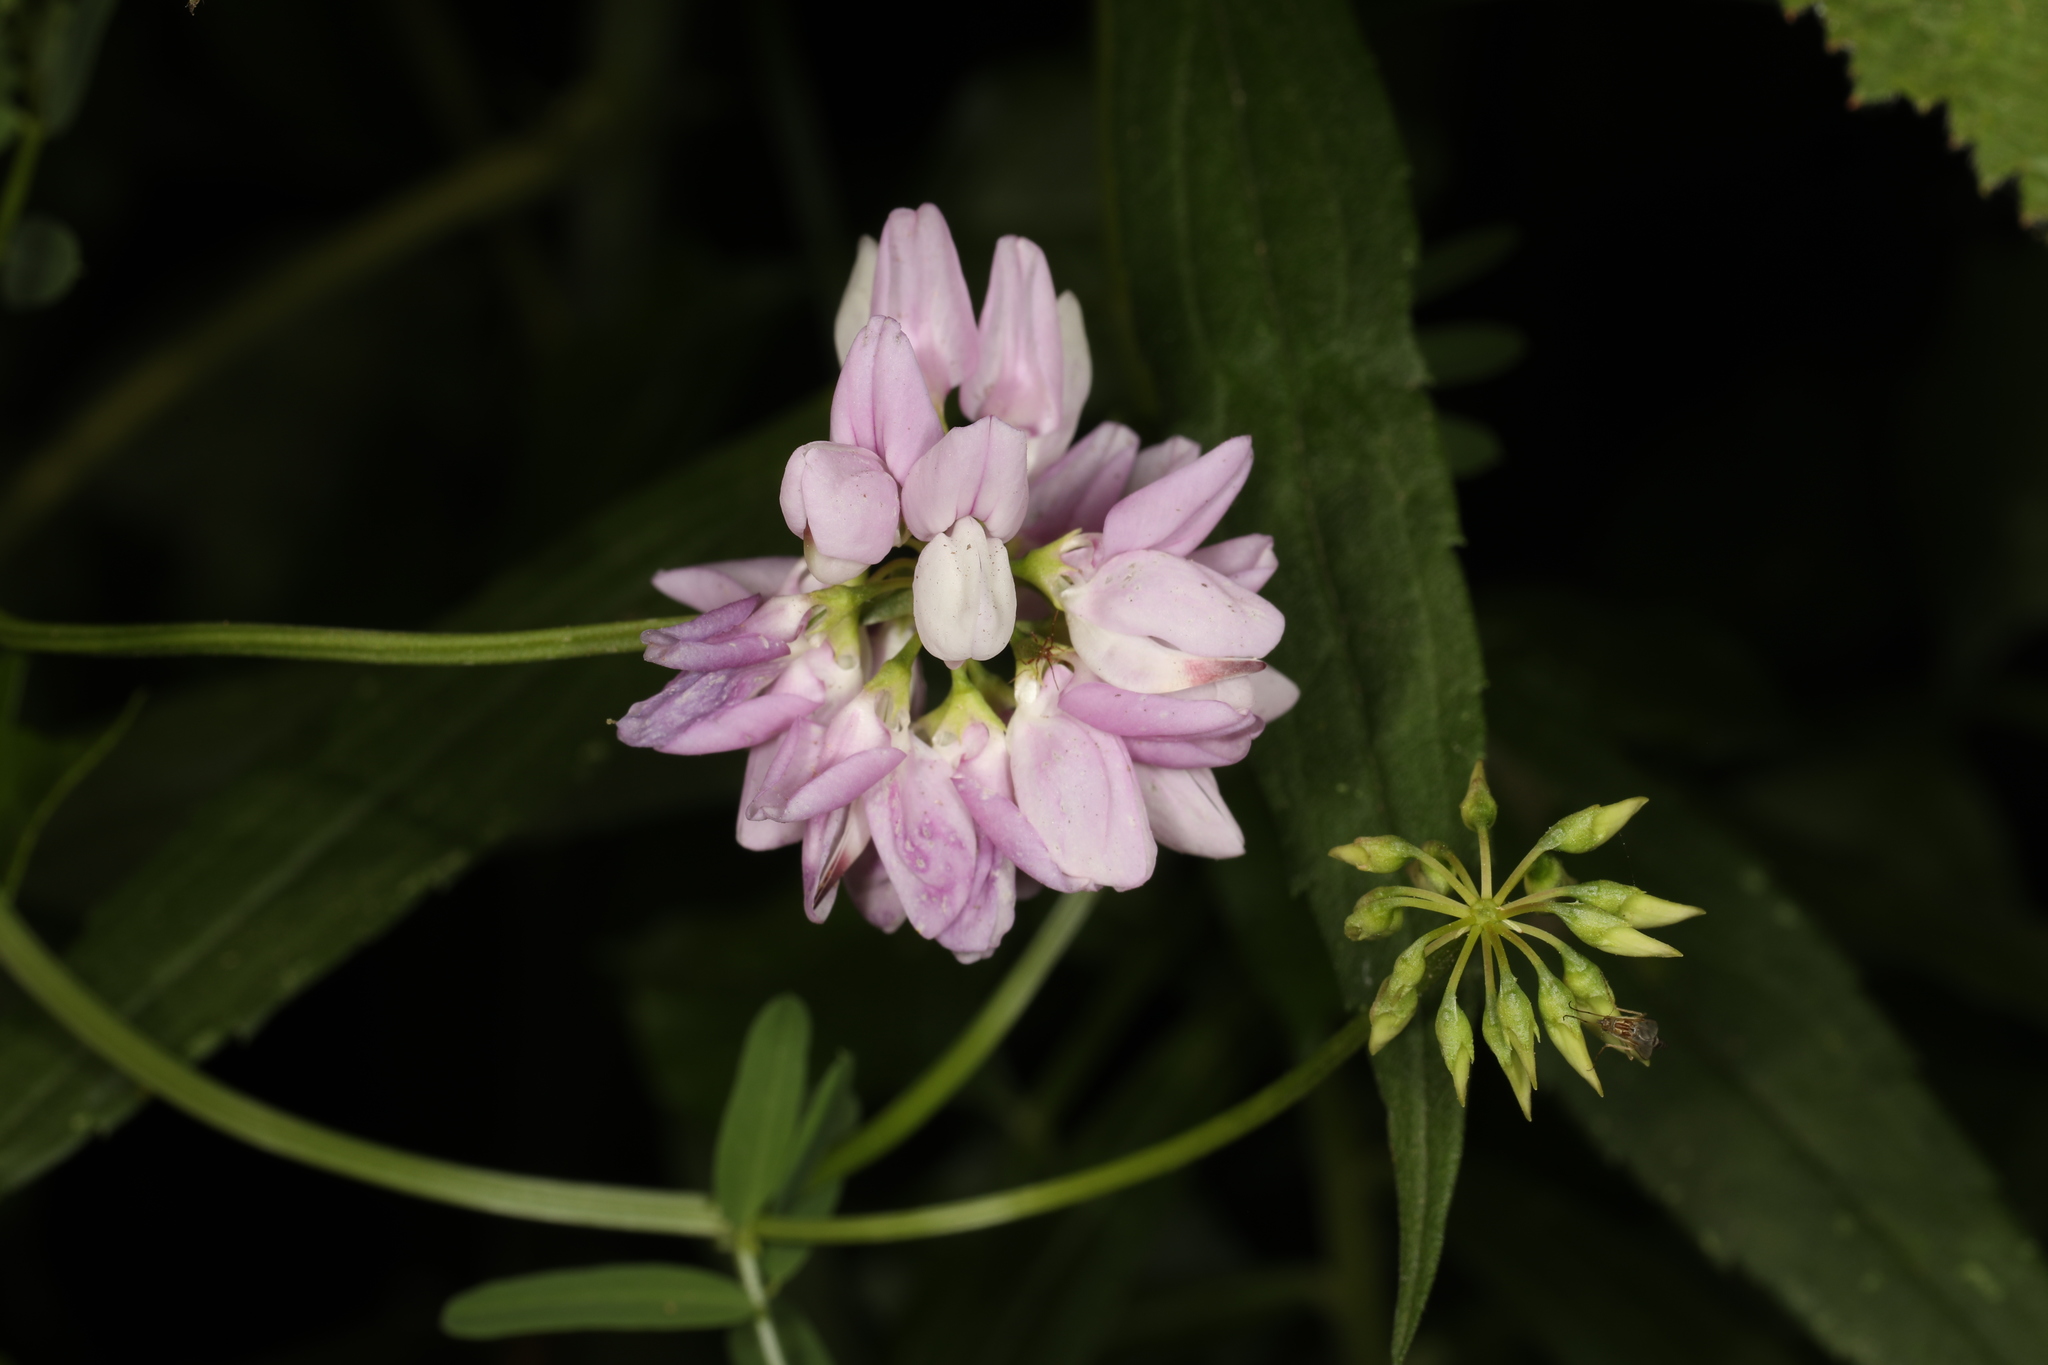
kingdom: Plantae
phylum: Tracheophyta
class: Magnoliopsida
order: Fabales
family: Fabaceae
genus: Coronilla
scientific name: Coronilla varia
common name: Crownvetch
